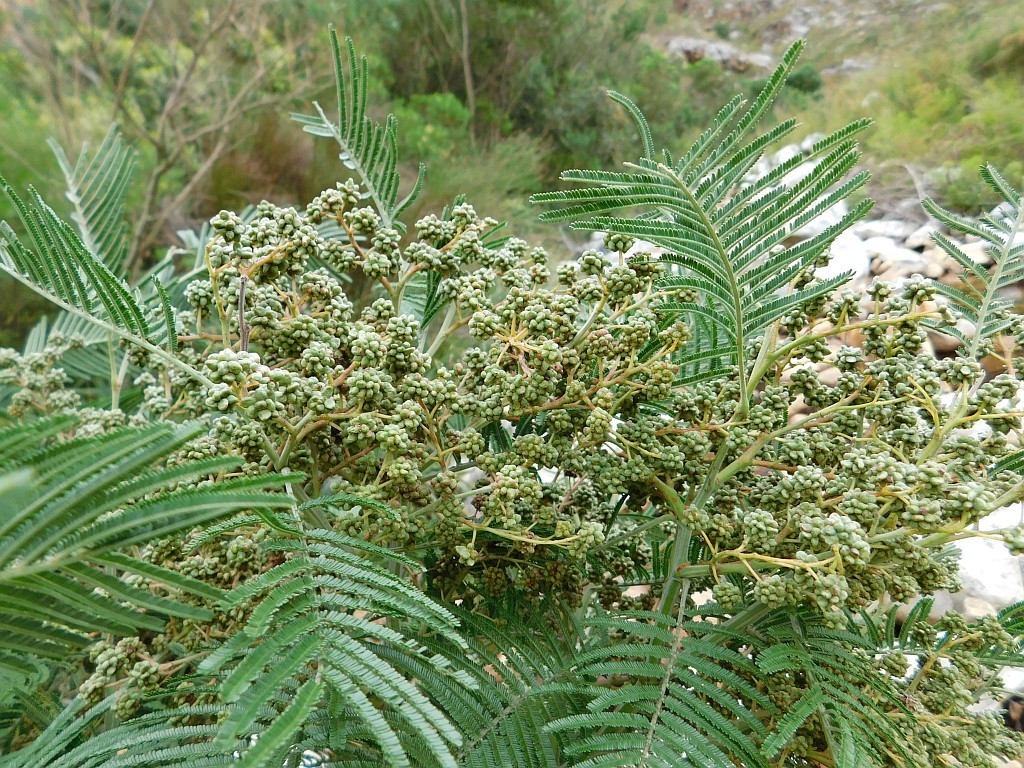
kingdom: Animalia
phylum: Arthropoda
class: Insecta
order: Diptera
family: Cecidomyiidae
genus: Dasineura
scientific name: Dasineura rubiformis
